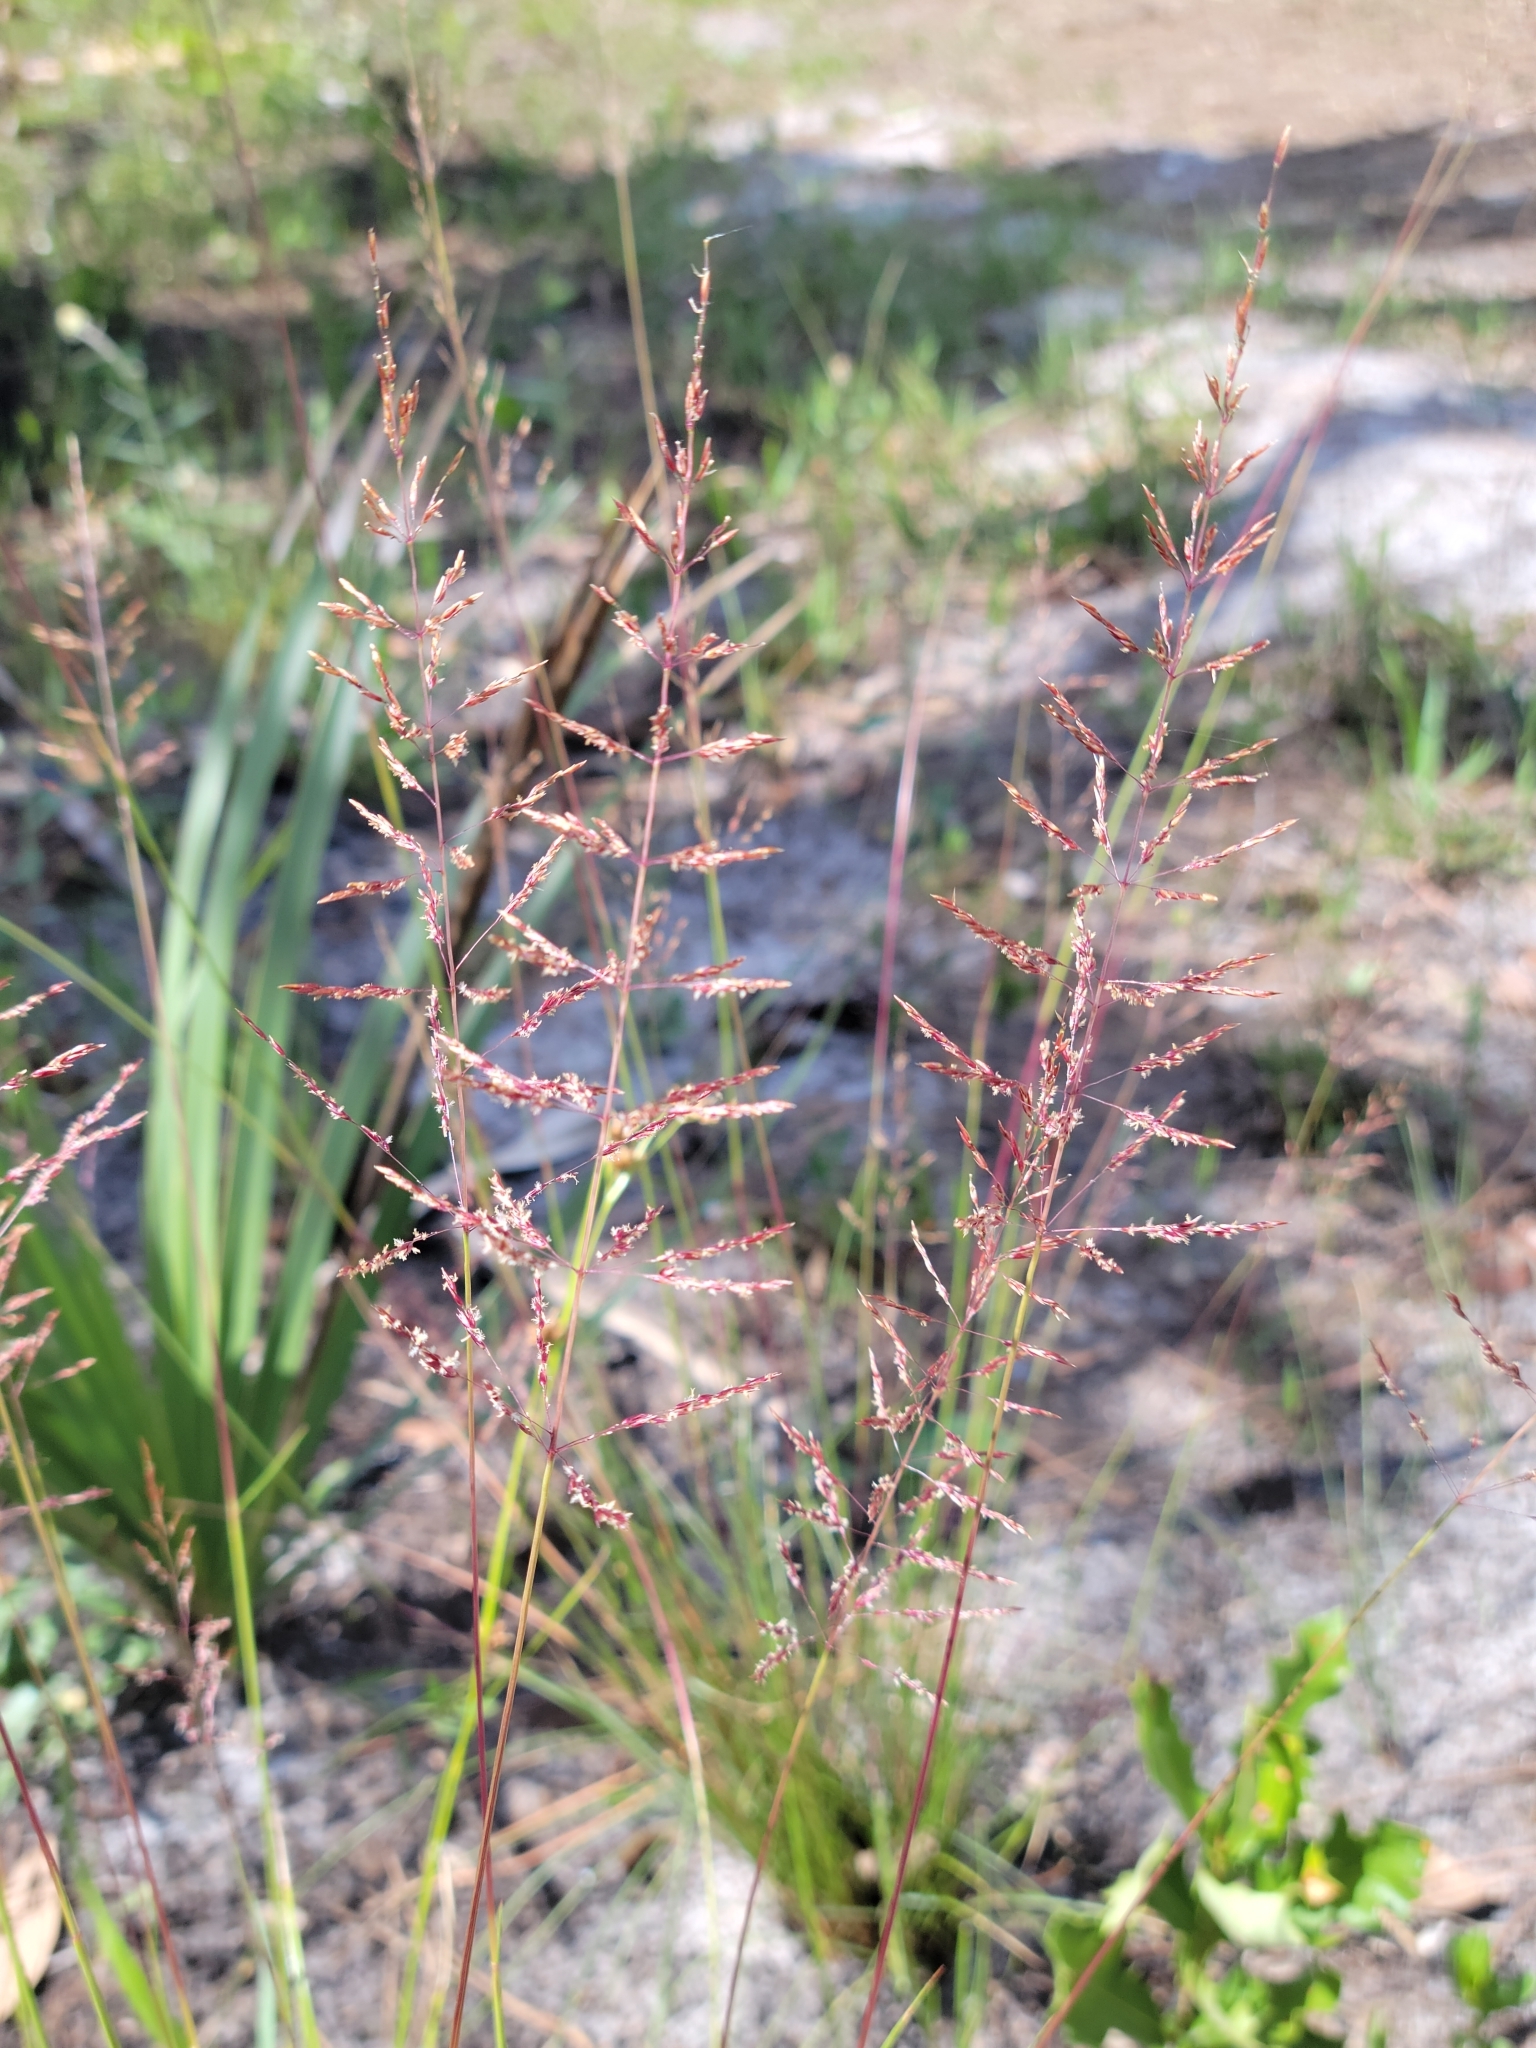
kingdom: Plantae
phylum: Tracheophyta
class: Liliopsida
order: Poales
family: Poaceae
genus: Sporobolus
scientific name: Sporobolus junceus
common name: Lizard grass
